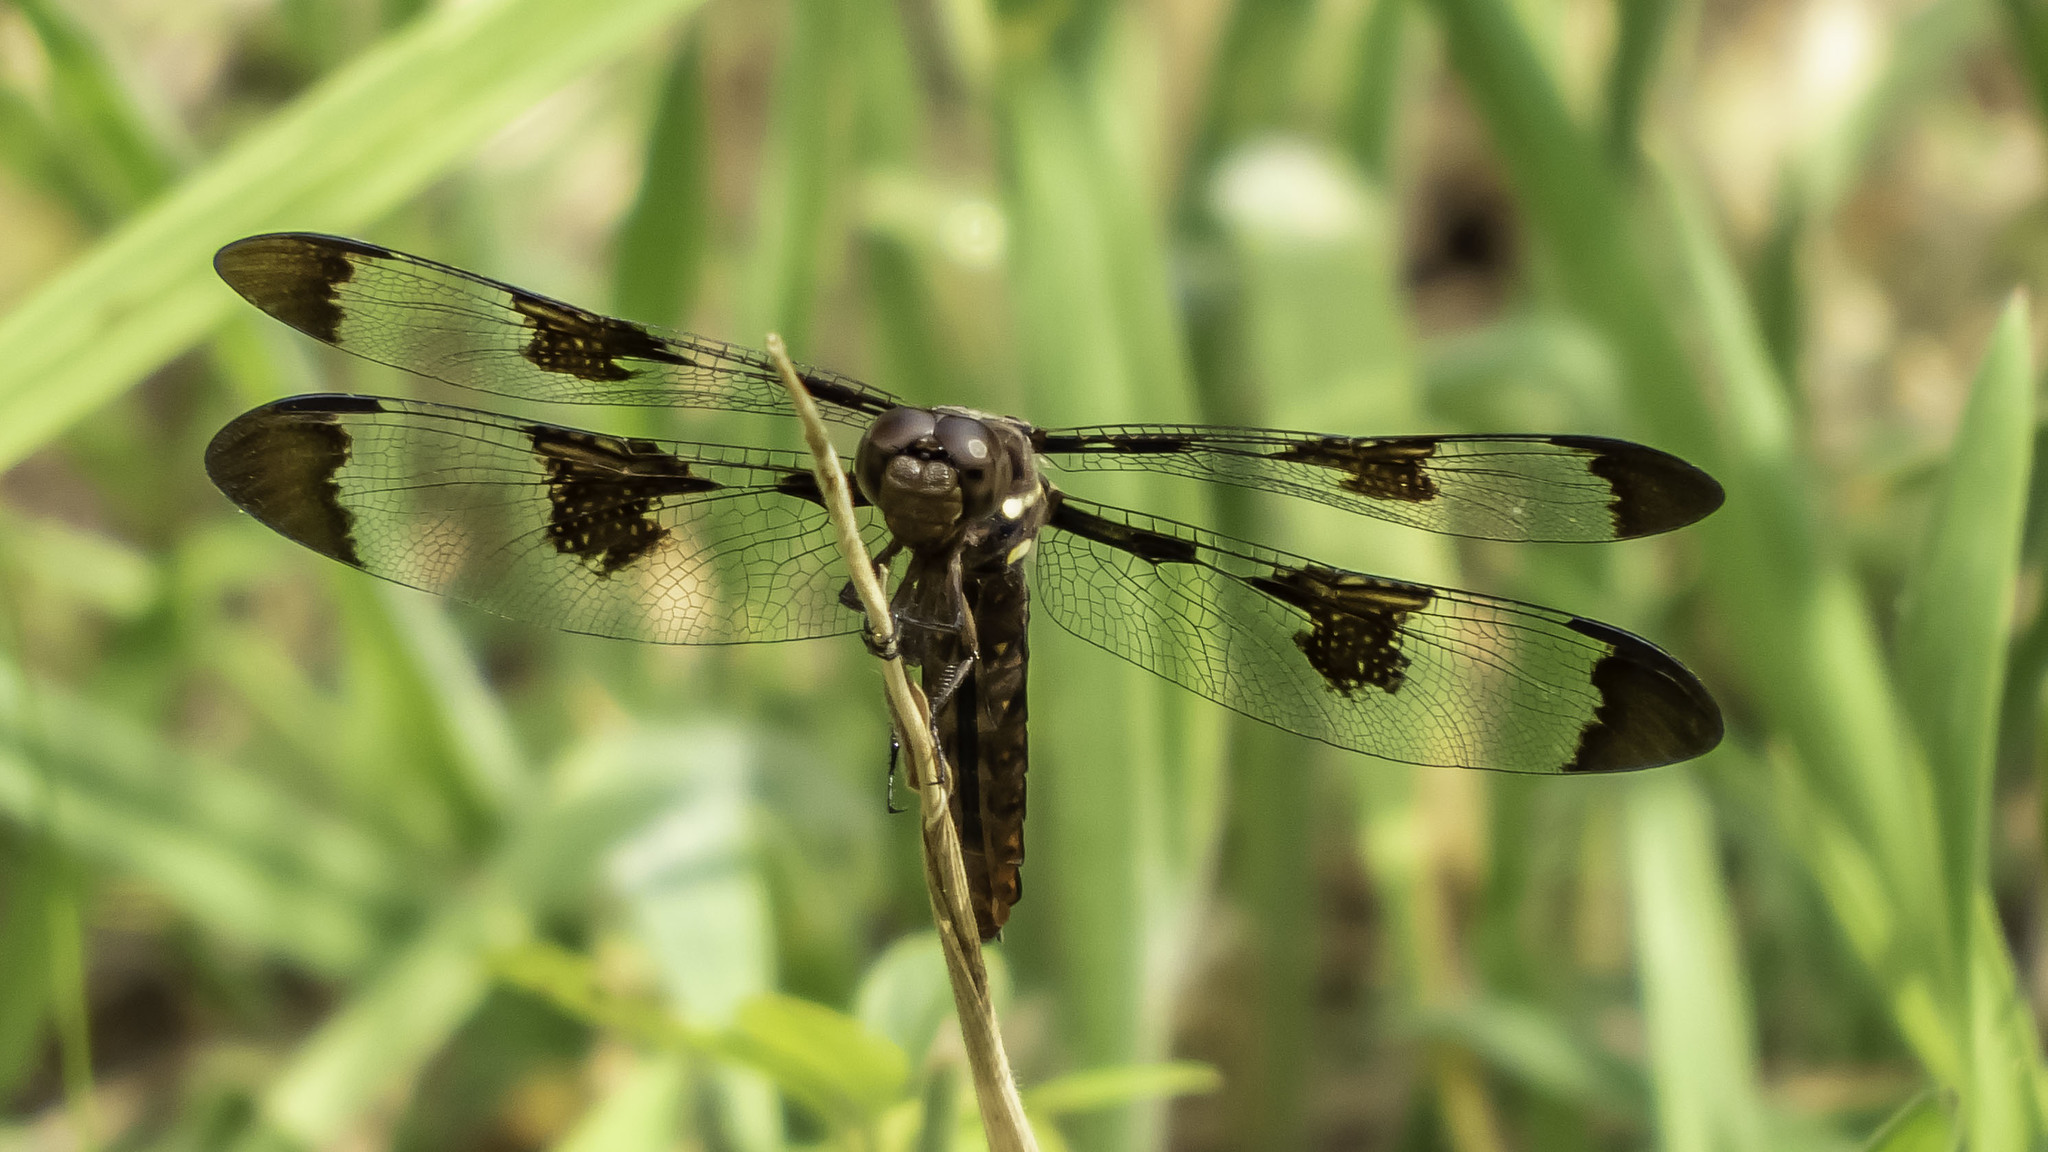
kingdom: Animalia
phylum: Arthropoda
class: Insecta
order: Odonata
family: Libellulidae
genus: Plathemis
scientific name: Plathemis lydia
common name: Common whitetail
